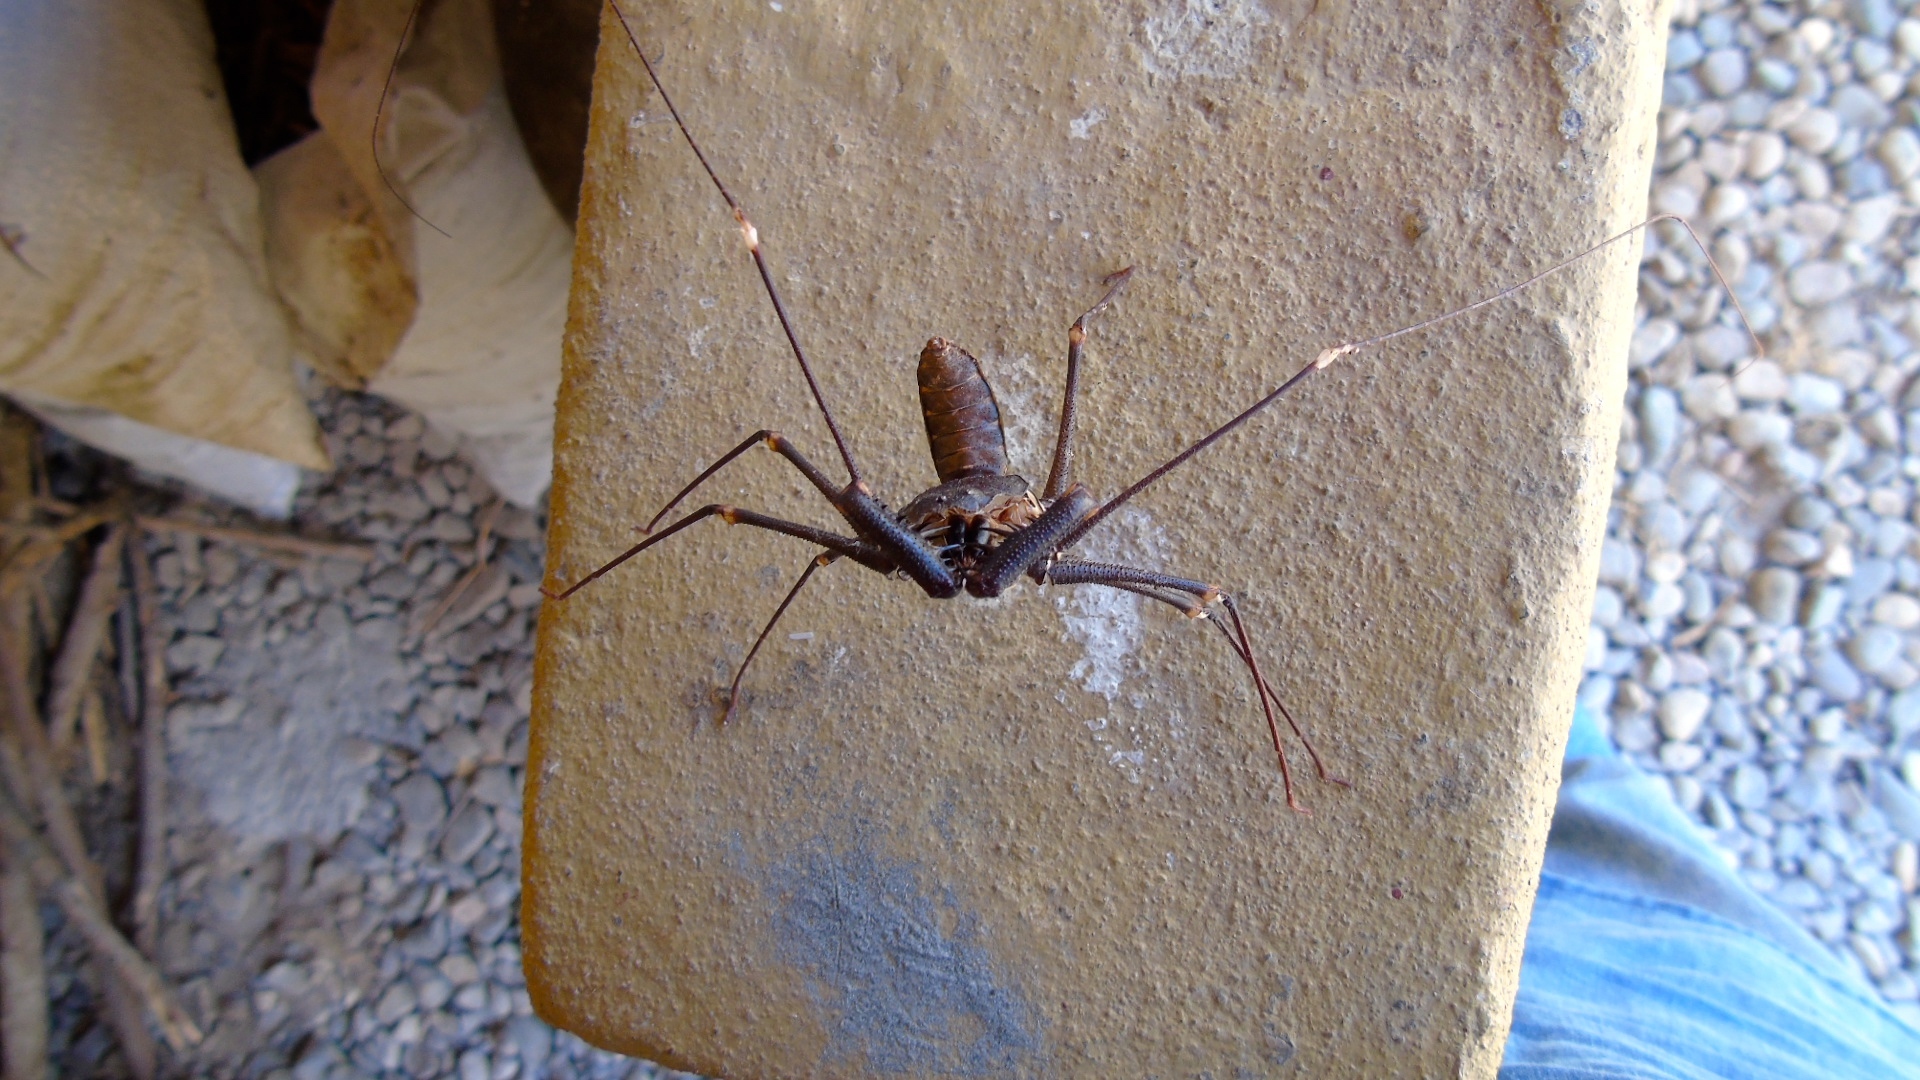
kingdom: Animalia
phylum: Arthropoda
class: Arachnida
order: Amblypygi
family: Phrynidae
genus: Acanthophrynus
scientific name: Acanthophrynus coronatus
